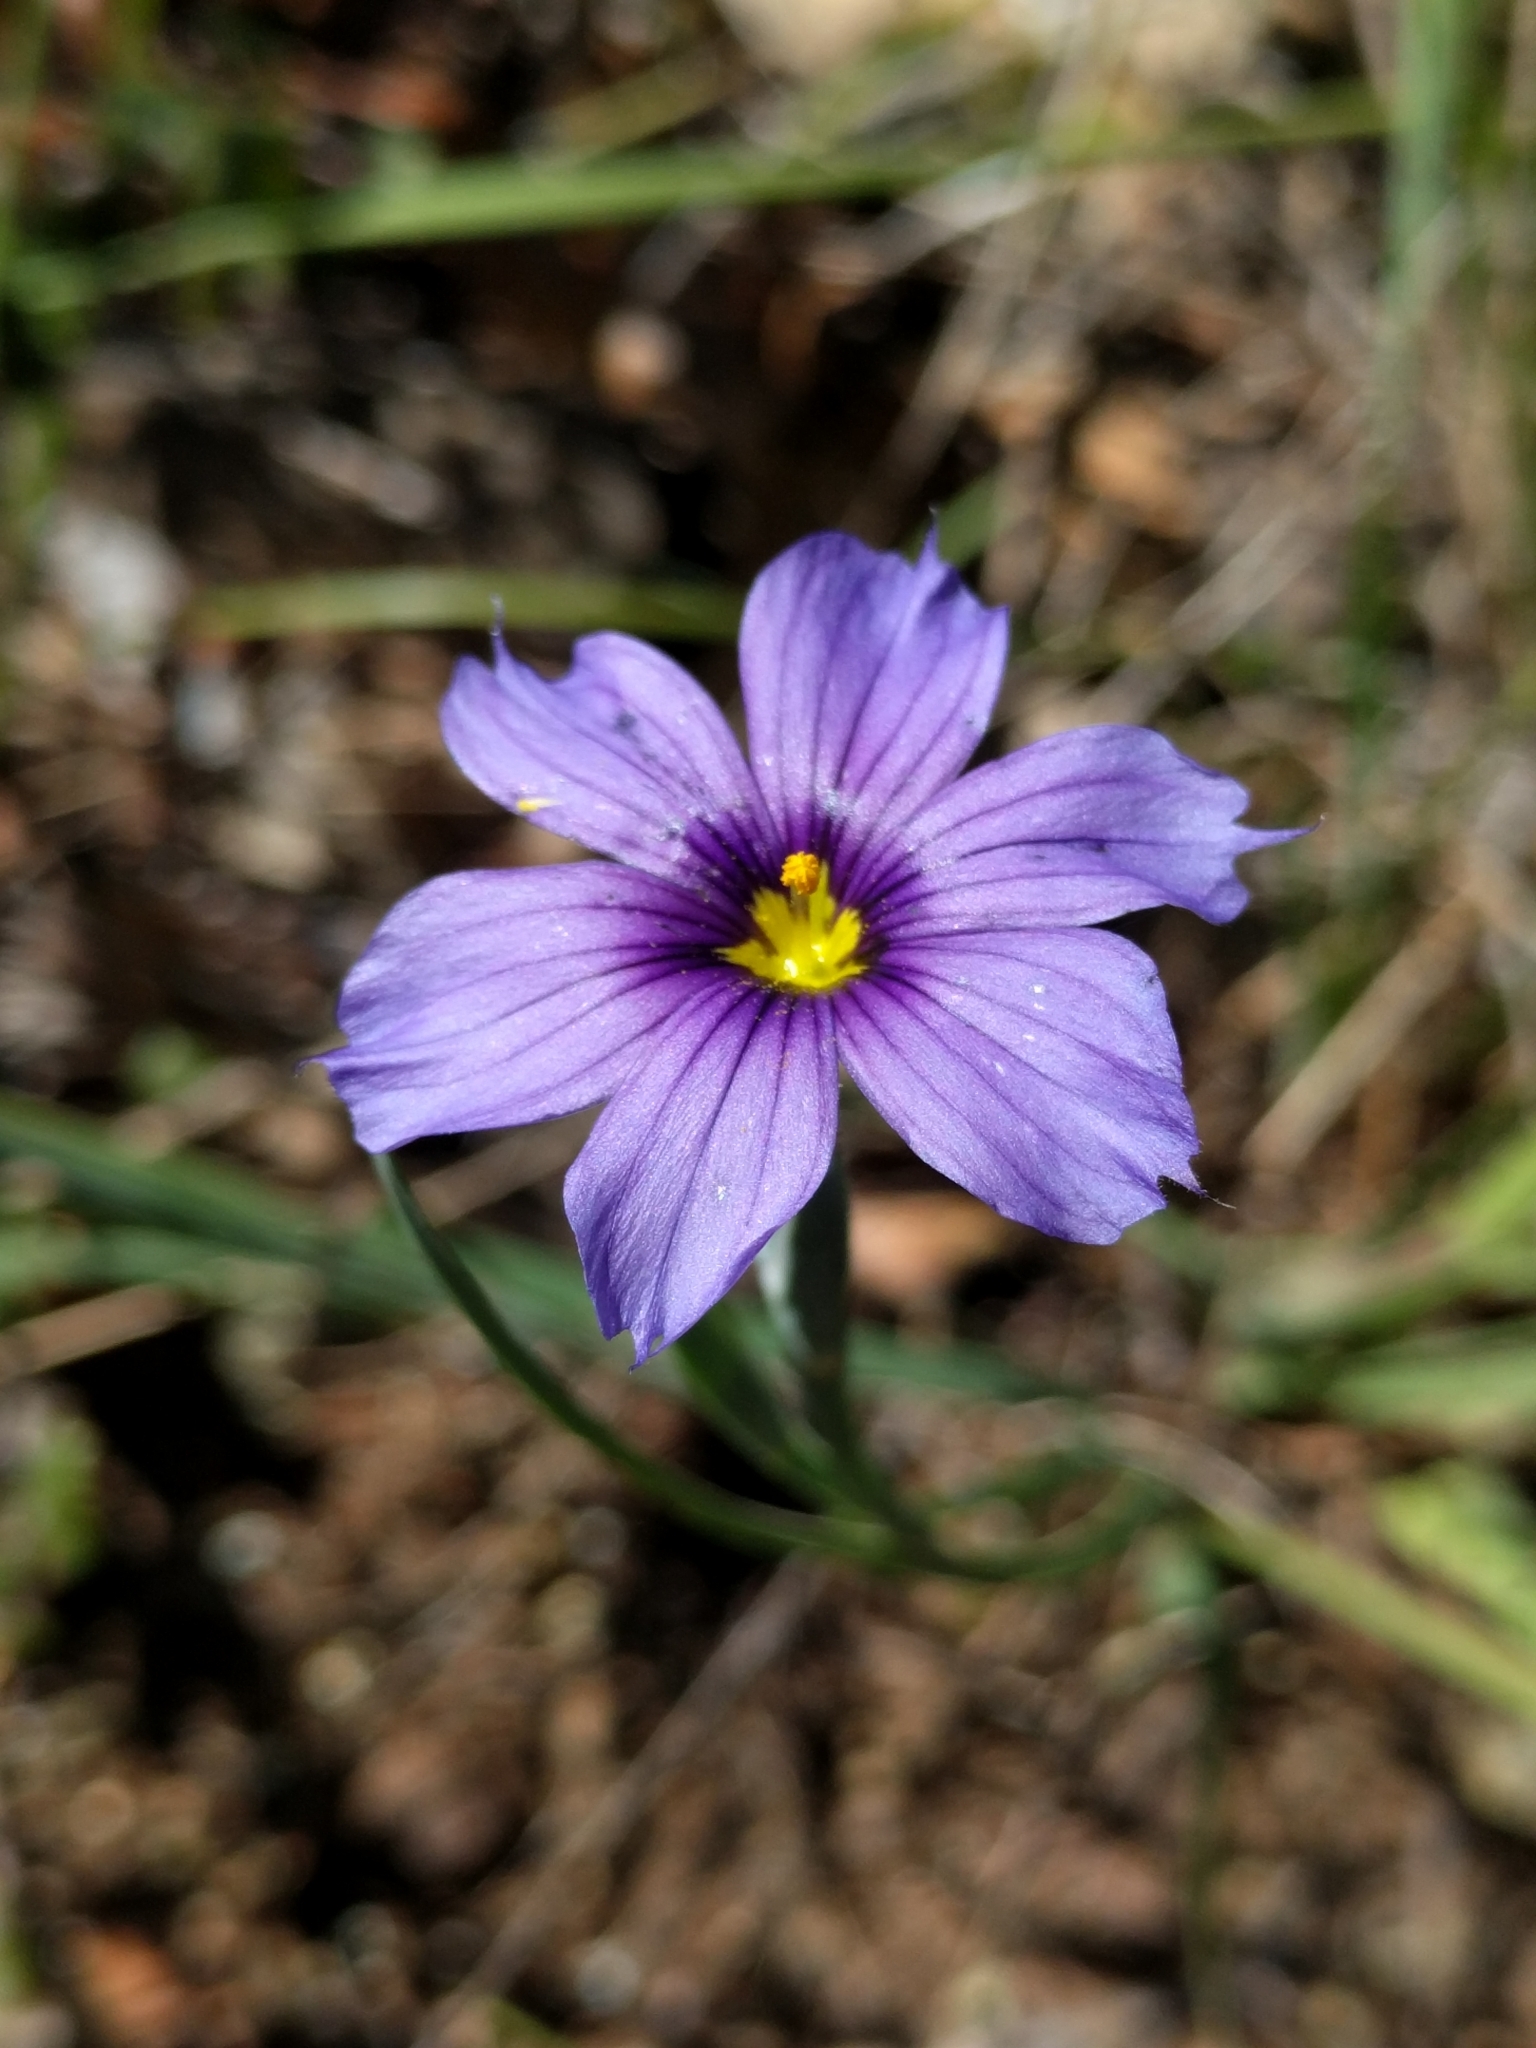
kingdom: Plantae
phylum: Tracheophyta
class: Liliopsida
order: Asparagales
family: Iridaceae
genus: Sisyrinchium
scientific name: Sisyrinchium bellum
